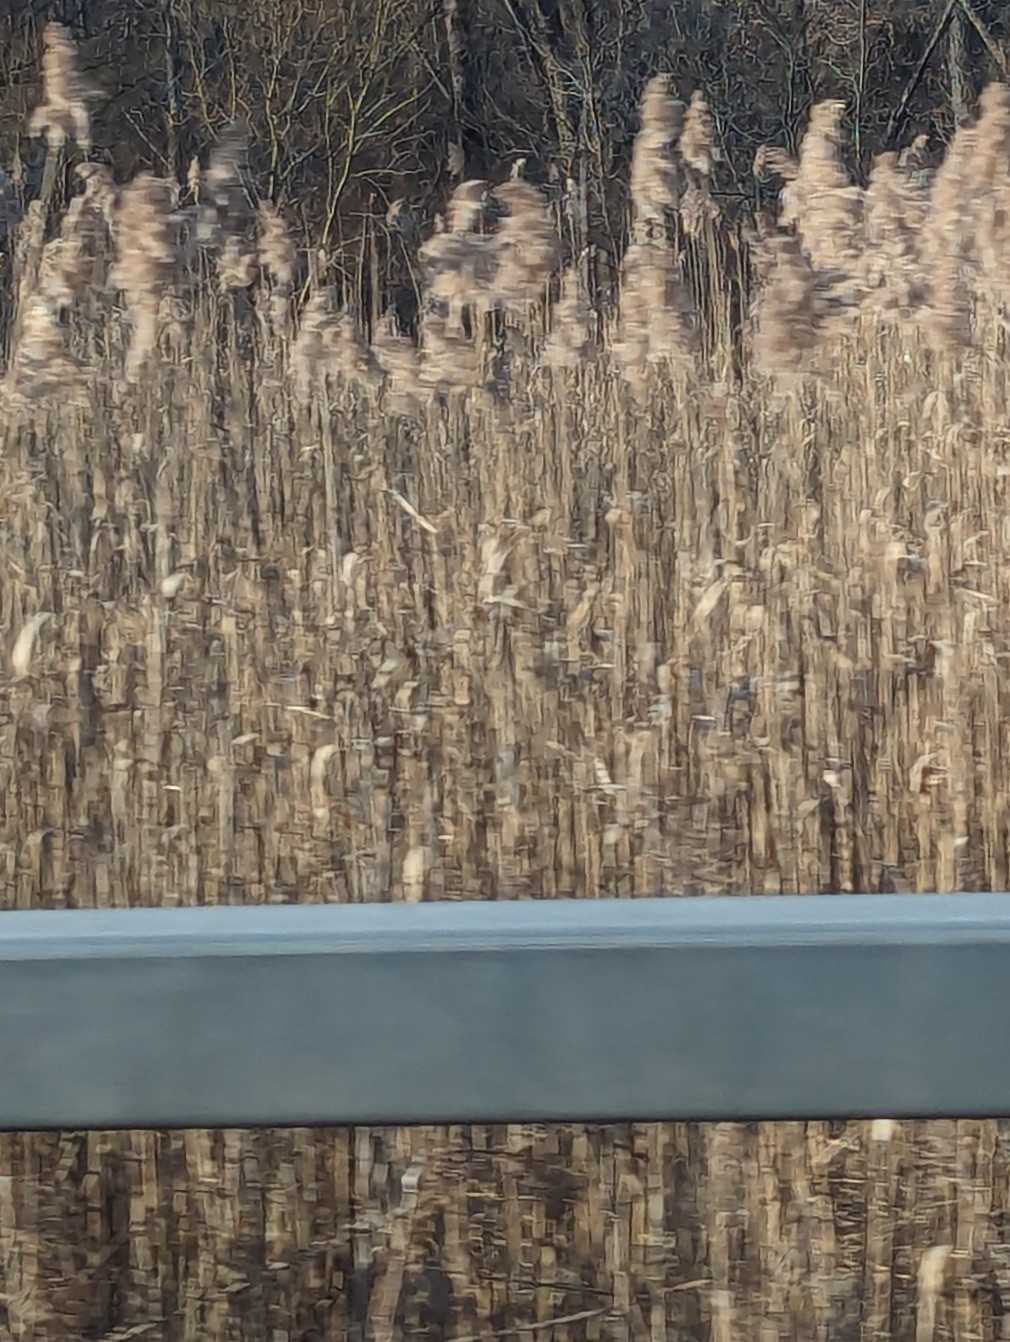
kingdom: Plantae
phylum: Tracheophyta
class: Liliopsida
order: Poales
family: Poaceae
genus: Phragmites
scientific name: Phragmites australis
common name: Common reed
